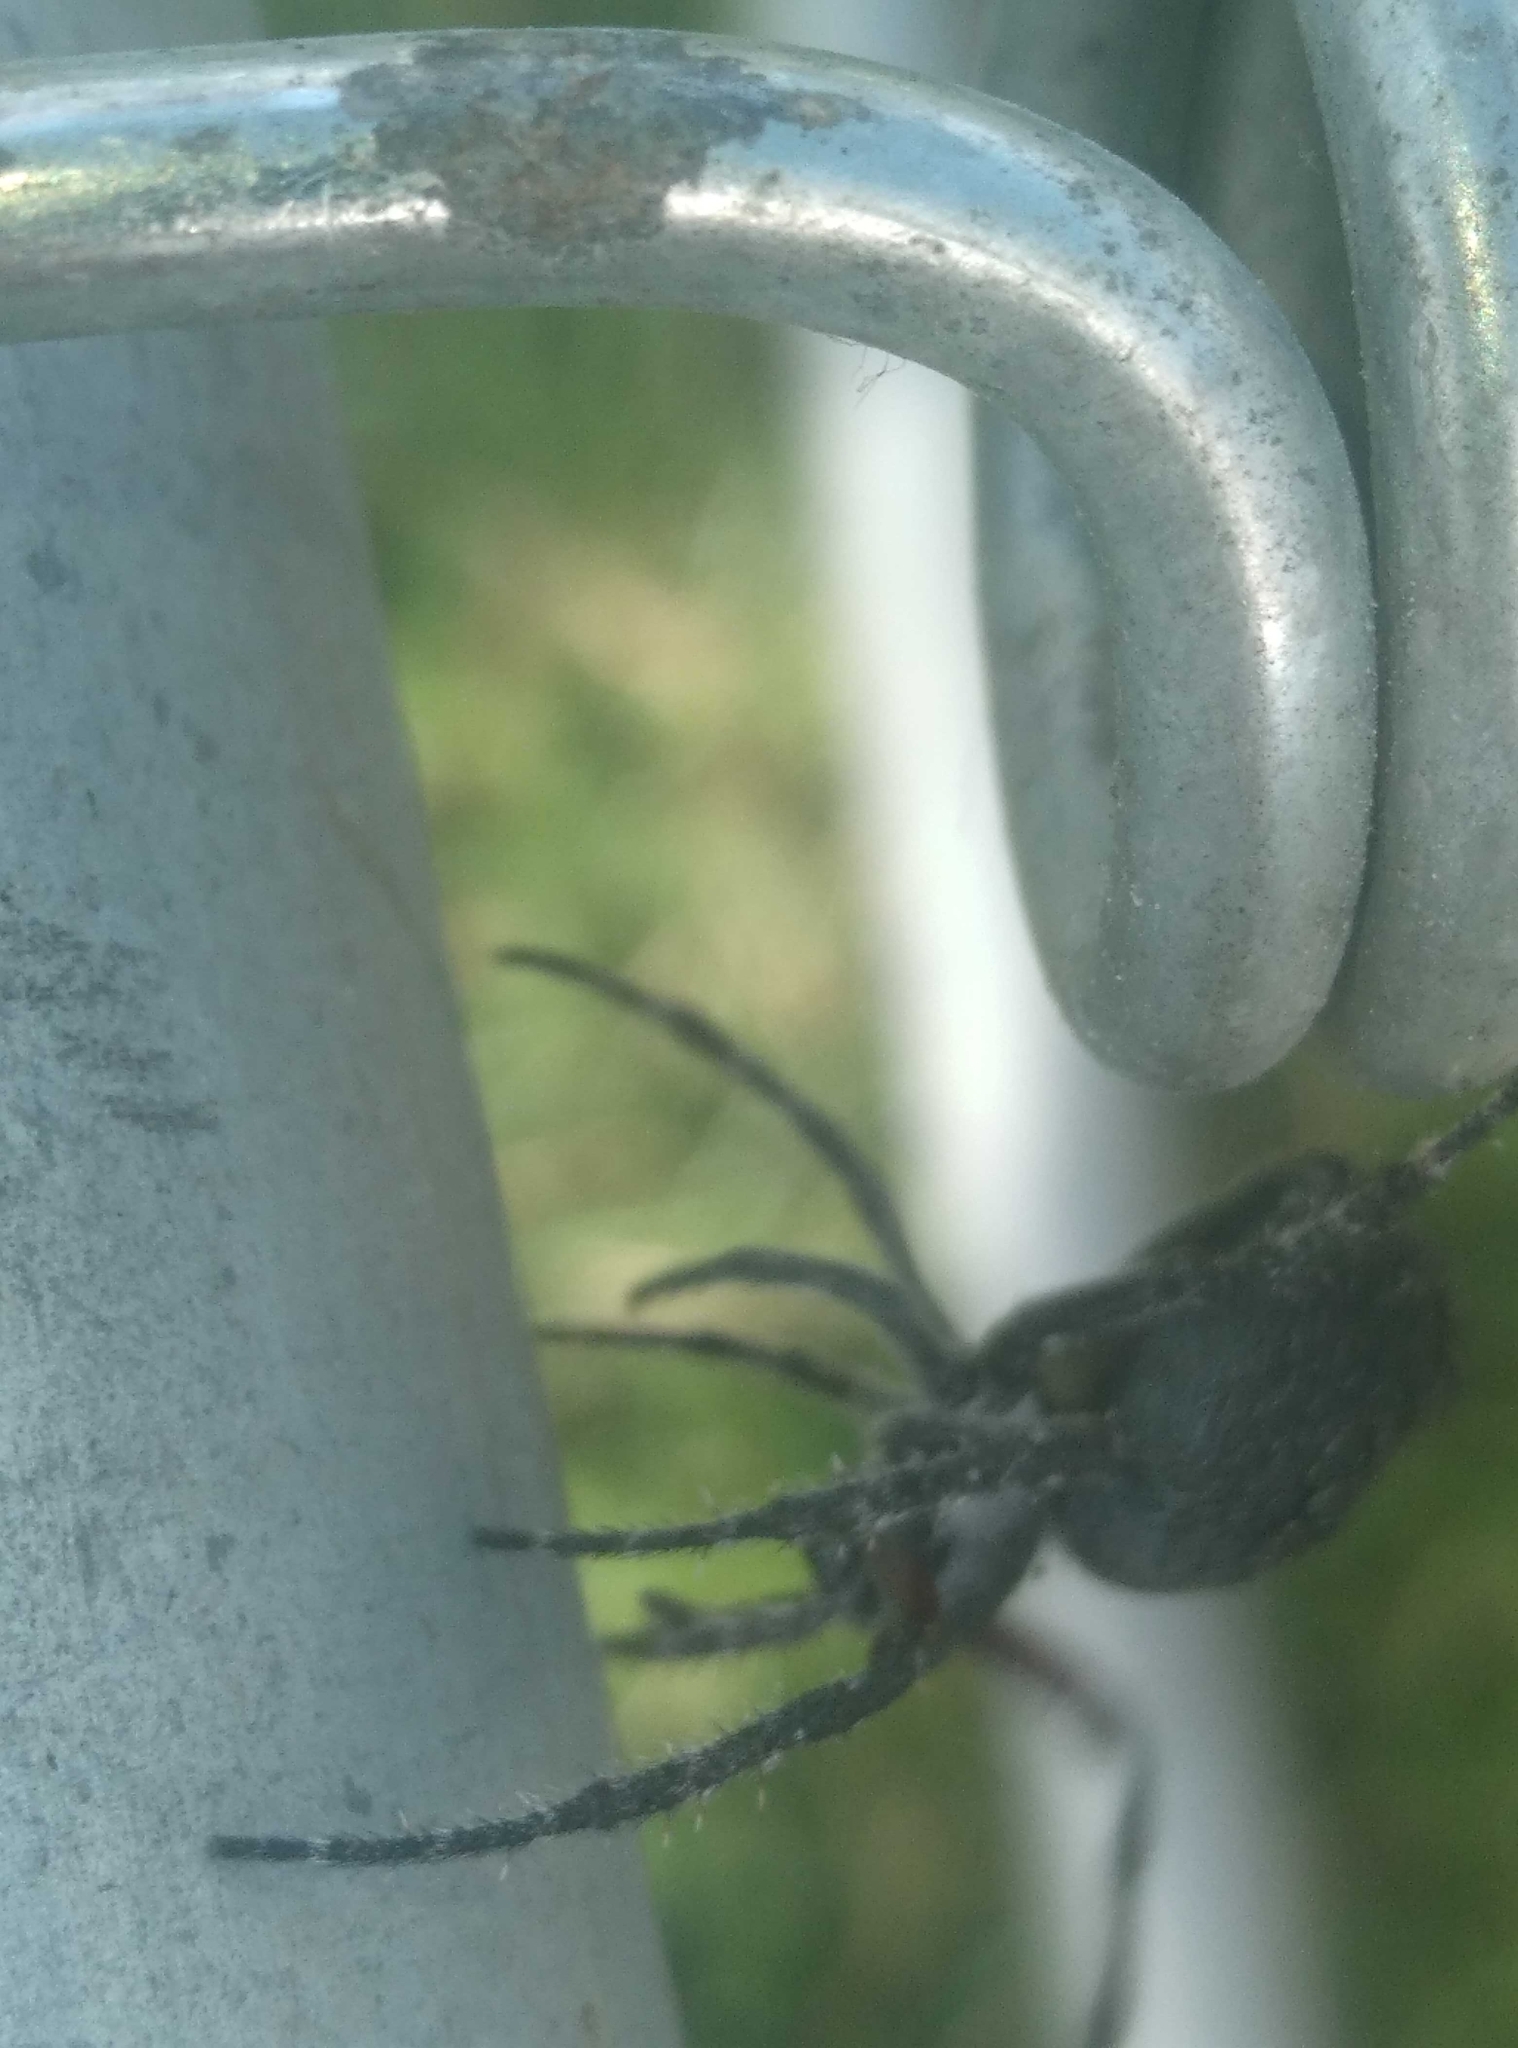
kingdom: Animalia
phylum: Arthropoda
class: Arachnida
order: Araneae
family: Araneidae
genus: Eriophora
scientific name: Eriophora pustulosa
